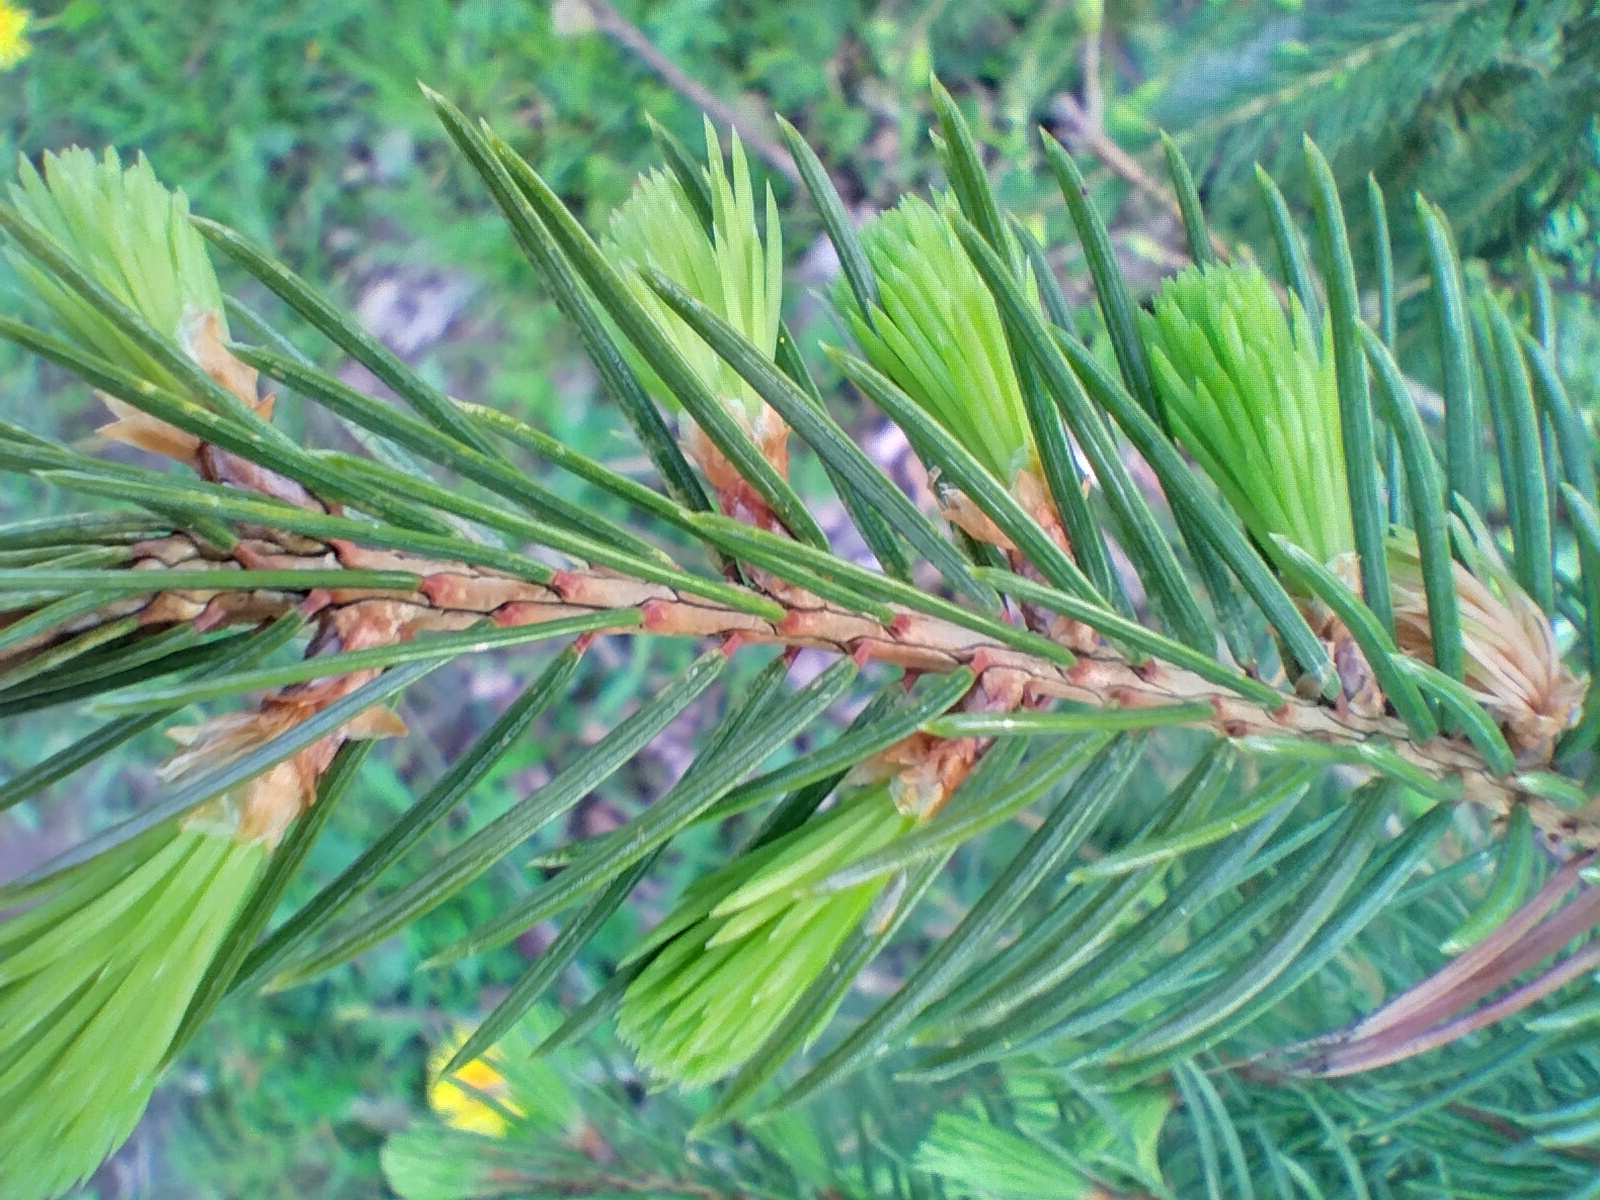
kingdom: Plantae
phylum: Tracheophyta
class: Pinopsida
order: Pinales
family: Pinaceae
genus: Picea
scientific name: Picea abies
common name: Norway spruce
